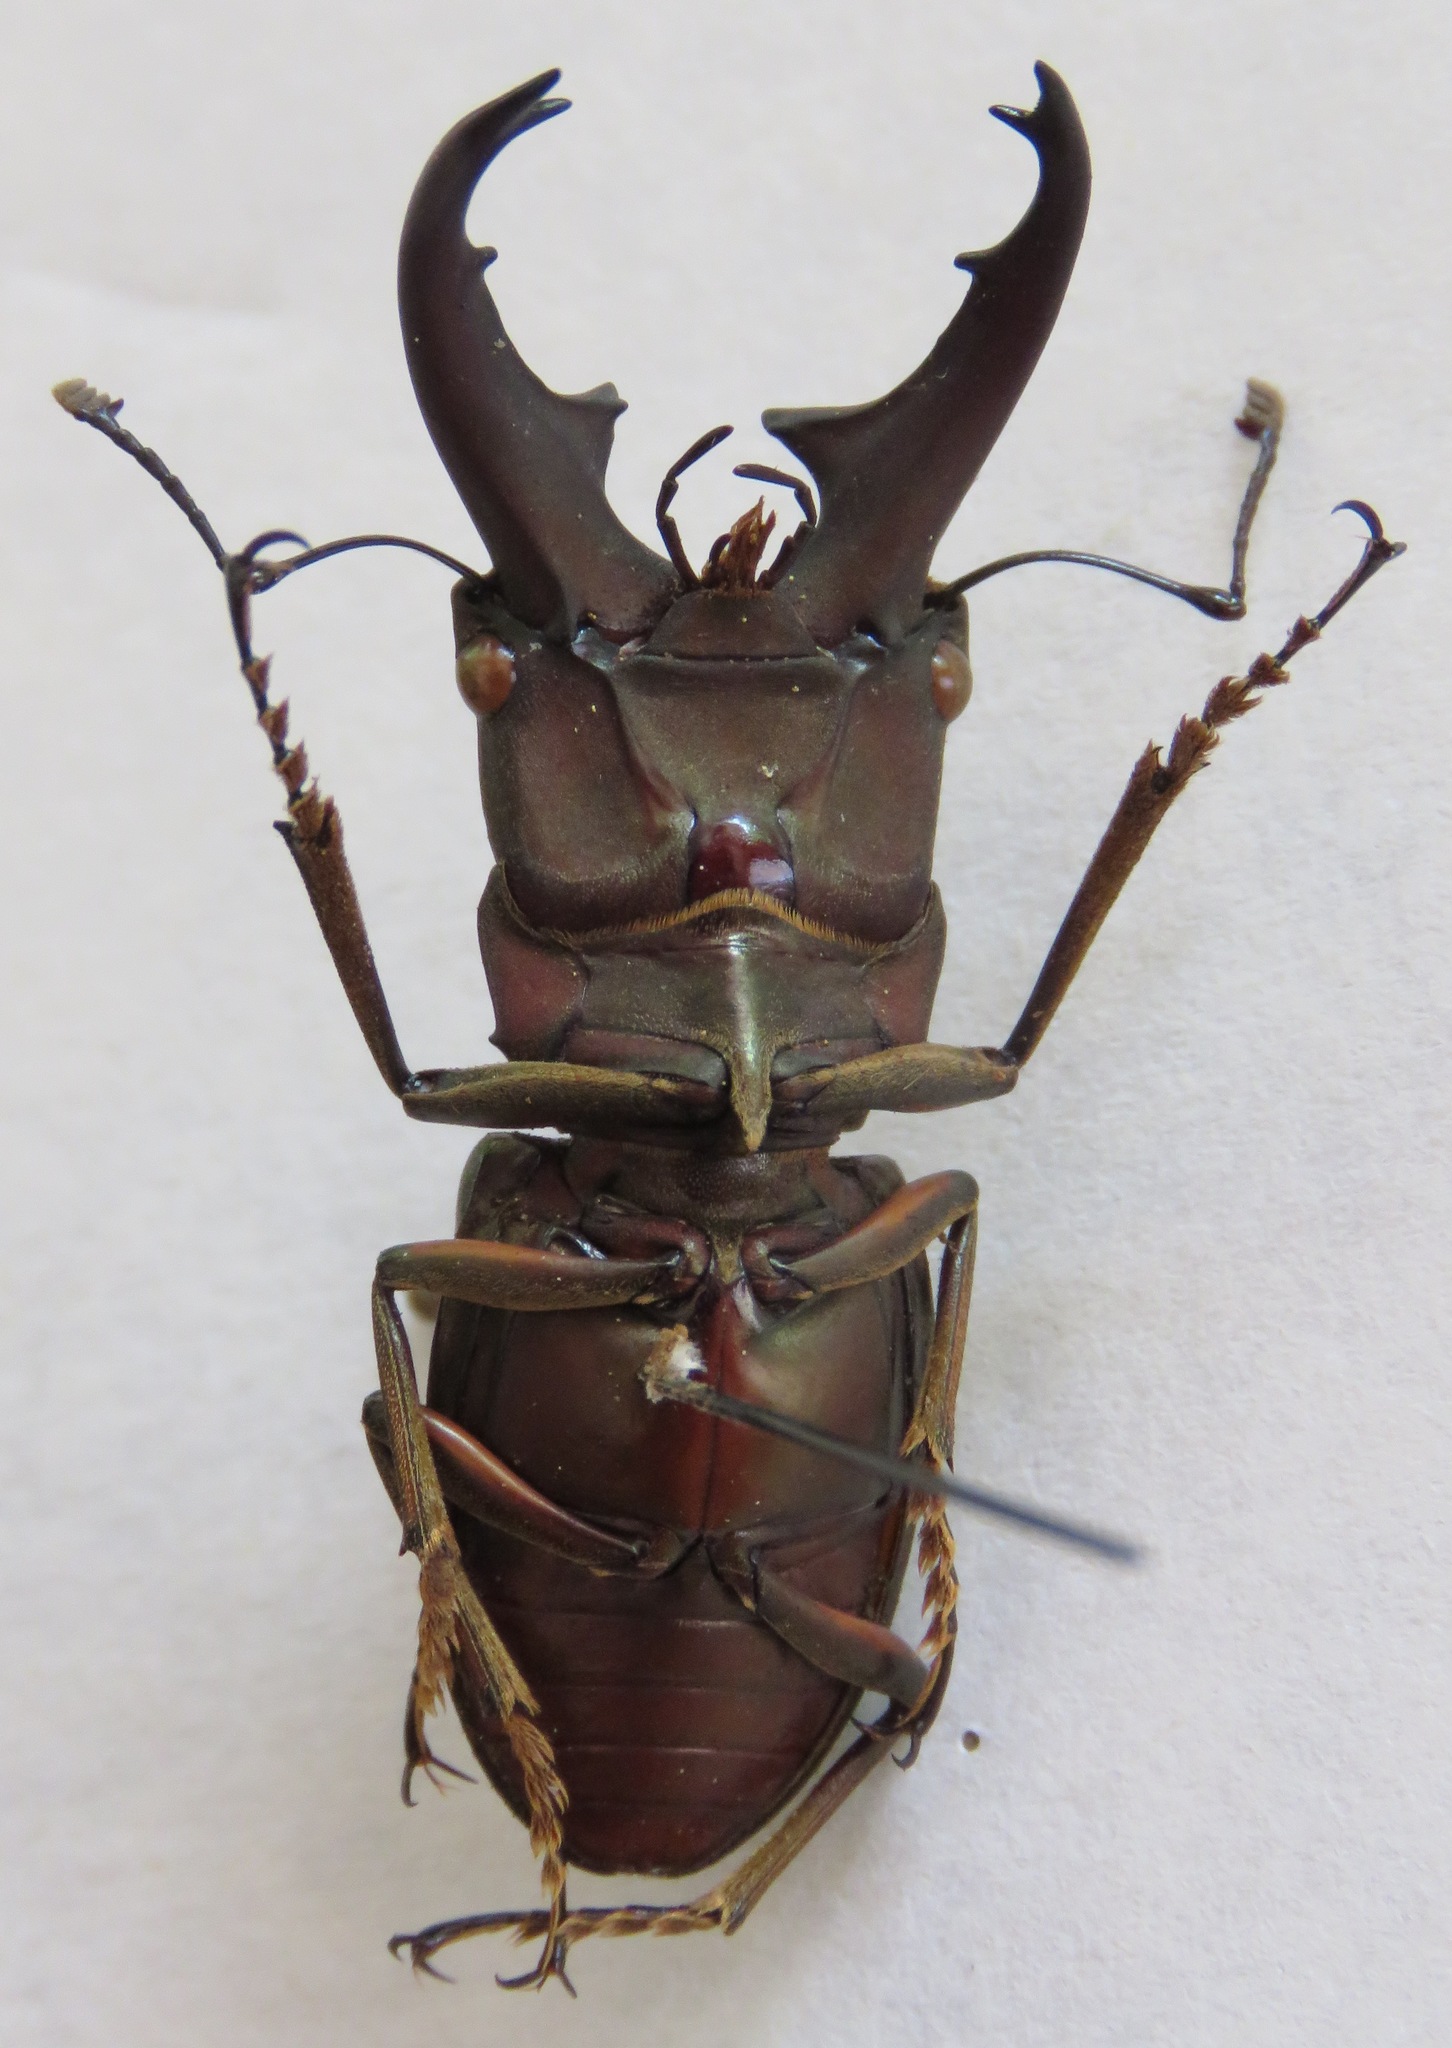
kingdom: Animalia
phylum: Arthropoda
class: Insecta
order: Coleoptera
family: Lucanidae
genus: Cyclommatinus
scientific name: Cyclommatinus albersii
